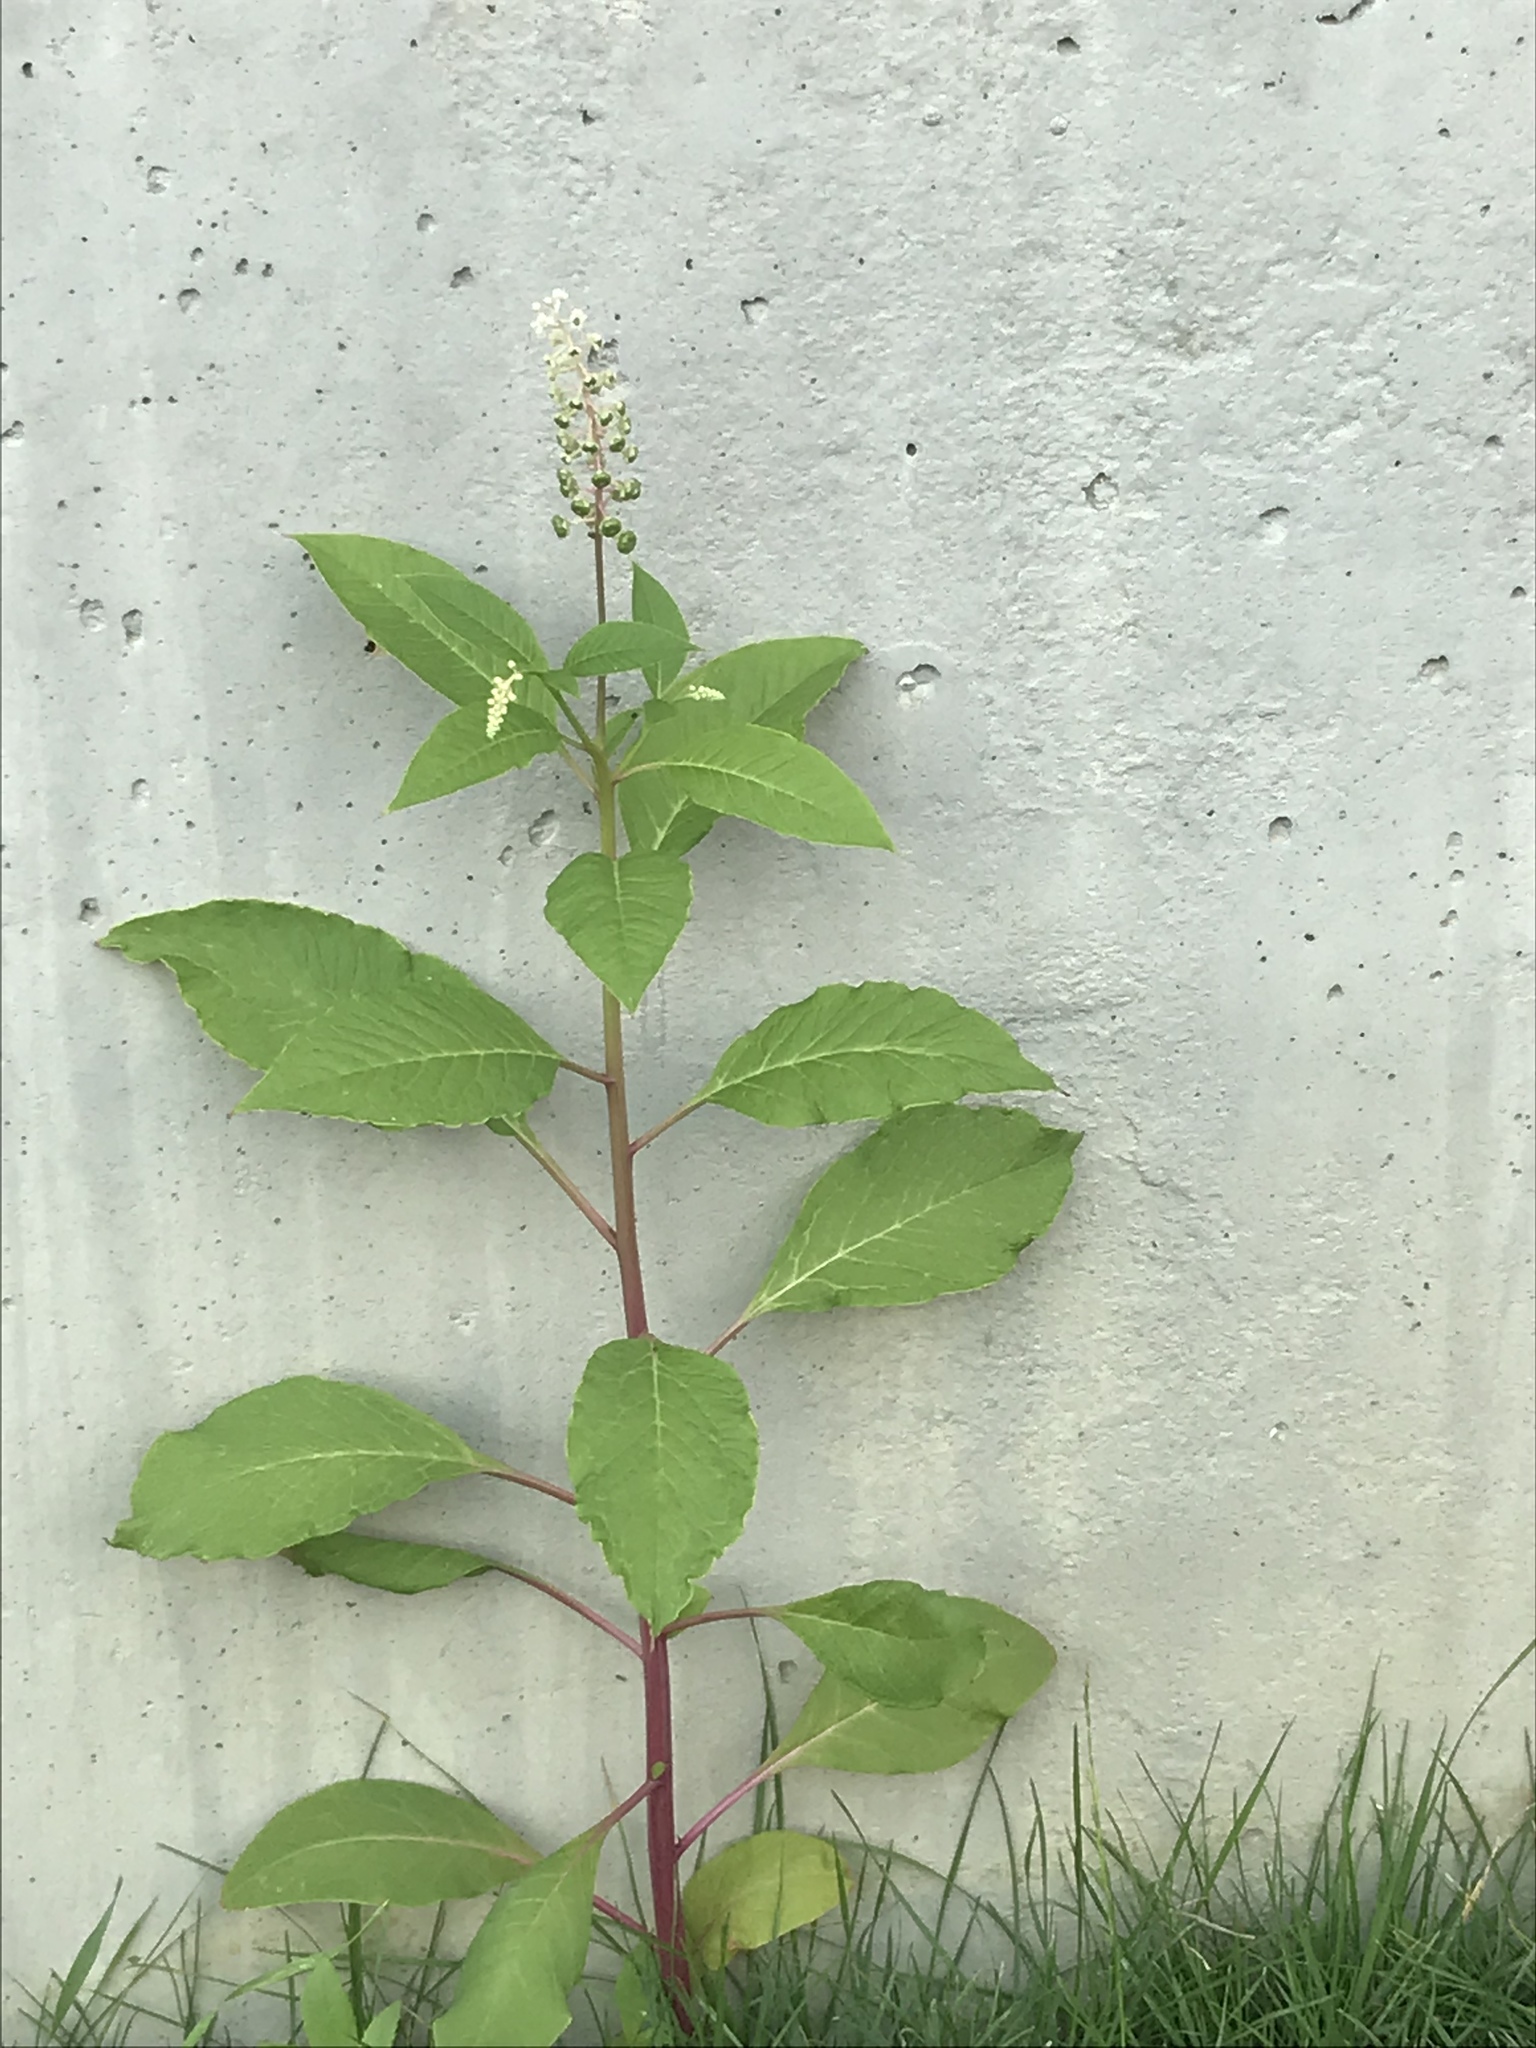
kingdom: Plantae
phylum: Tracheophyta
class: Magnoliopsida
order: Caryophyllales
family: Phytolaccaceae
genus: Phytolacca
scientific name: Phytolacca americana
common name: American pokeweed
